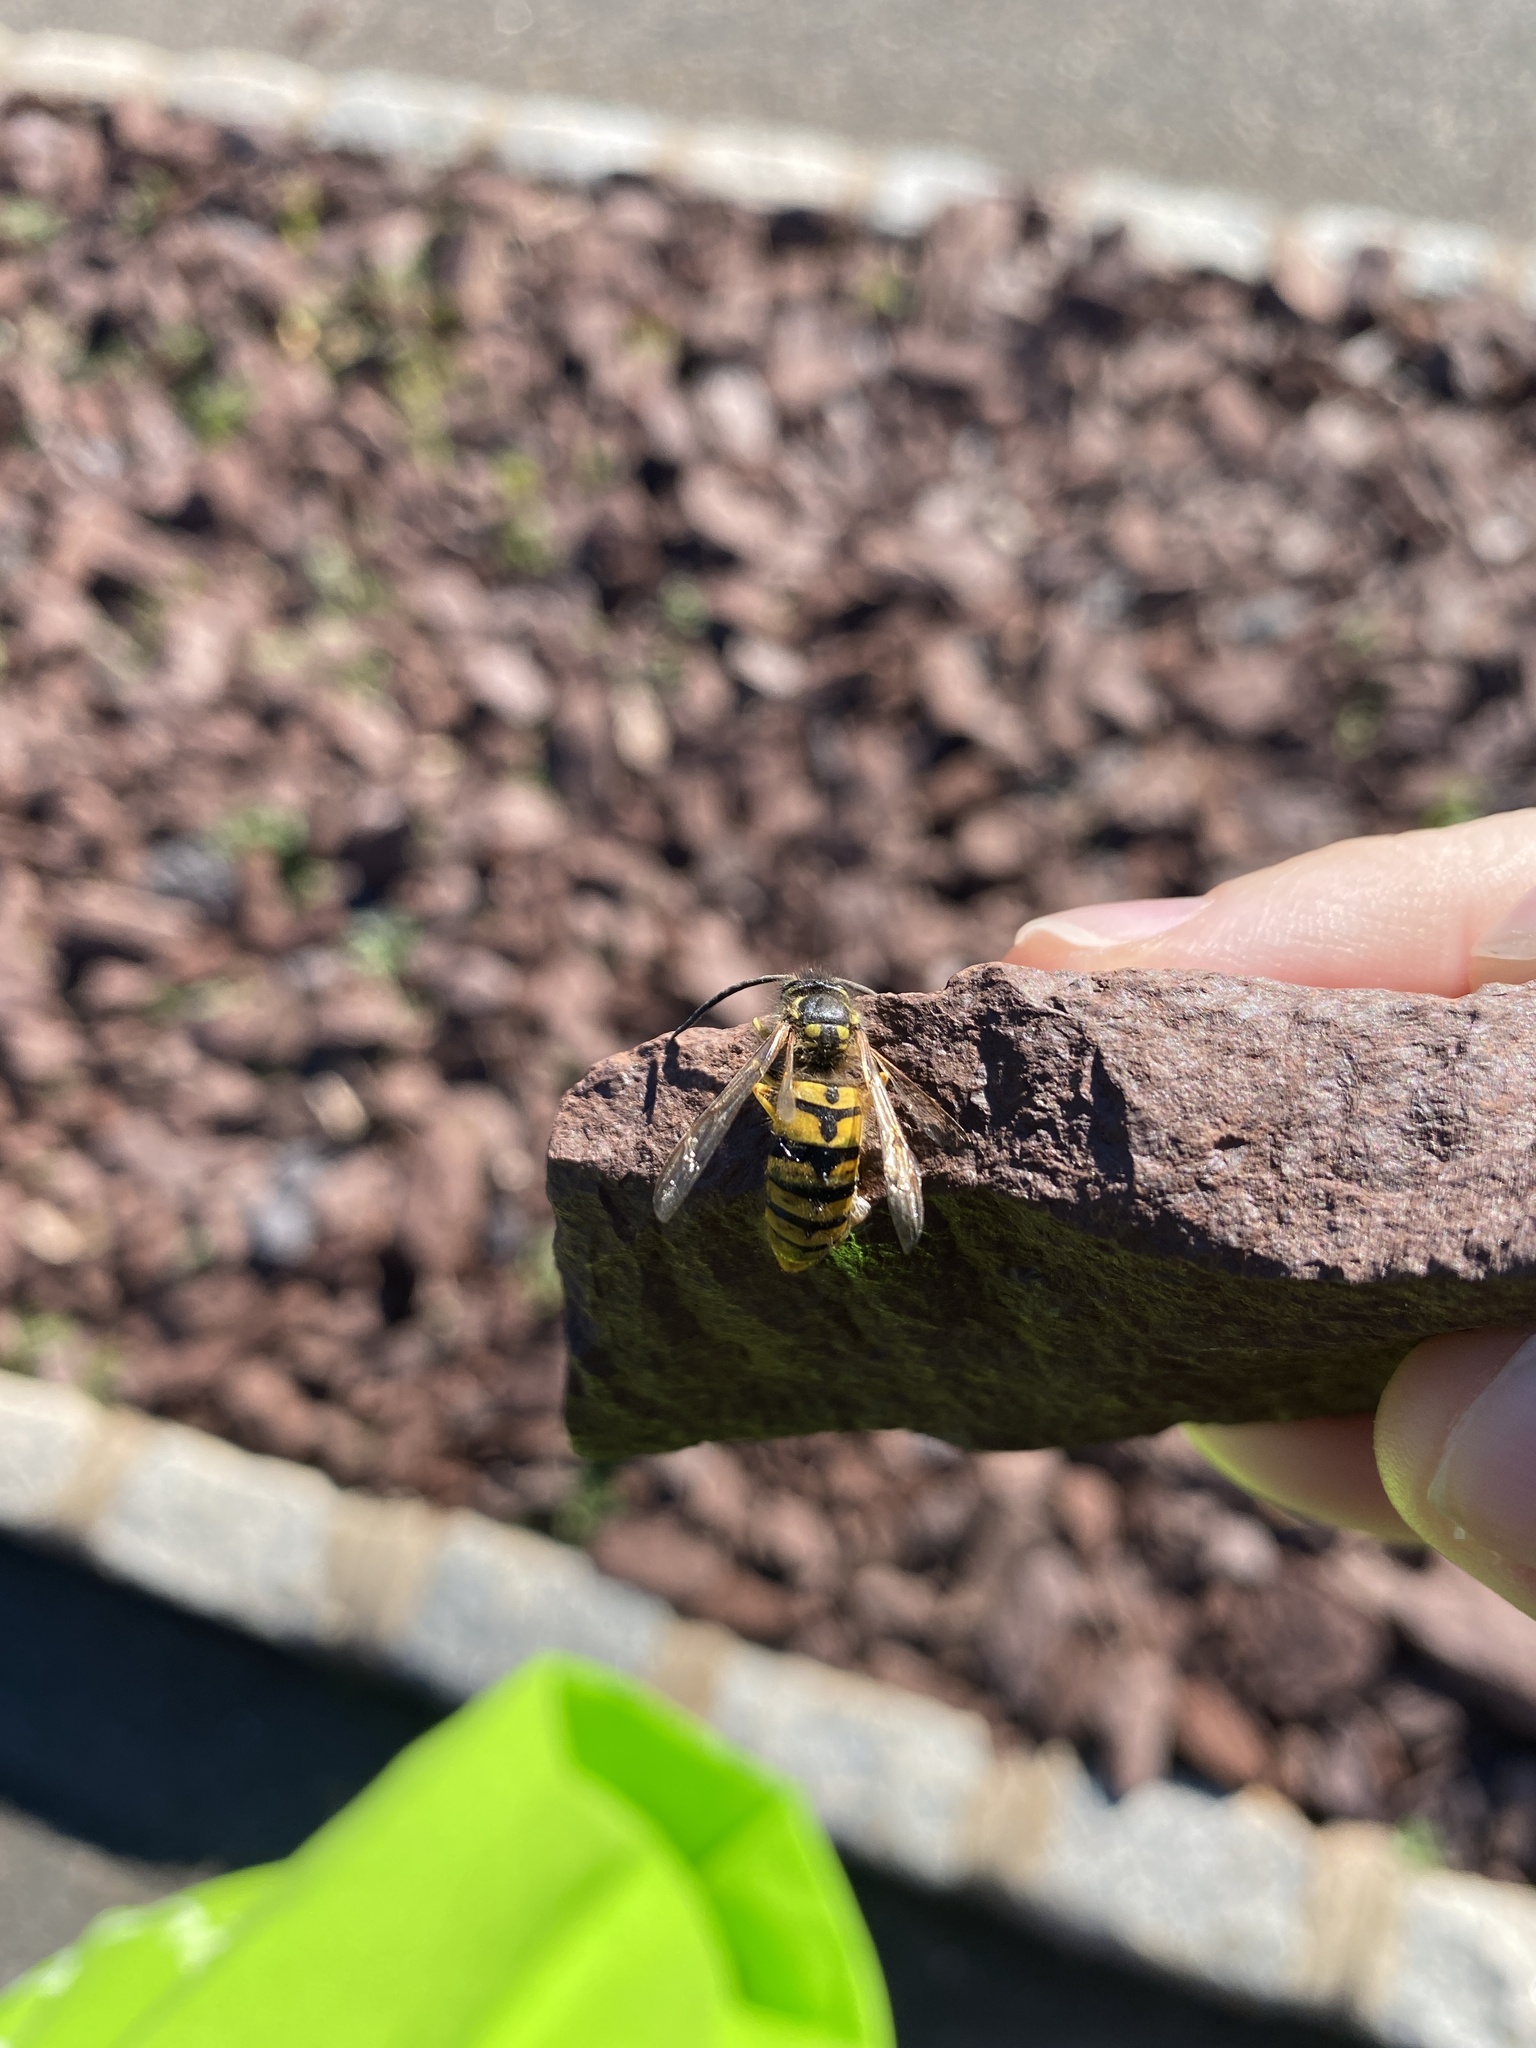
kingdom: Animalia
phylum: Arthropoda
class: Insecta
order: Hymenoptera
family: Vespidae
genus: Vespula
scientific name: Vespula germanica
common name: German wasp
